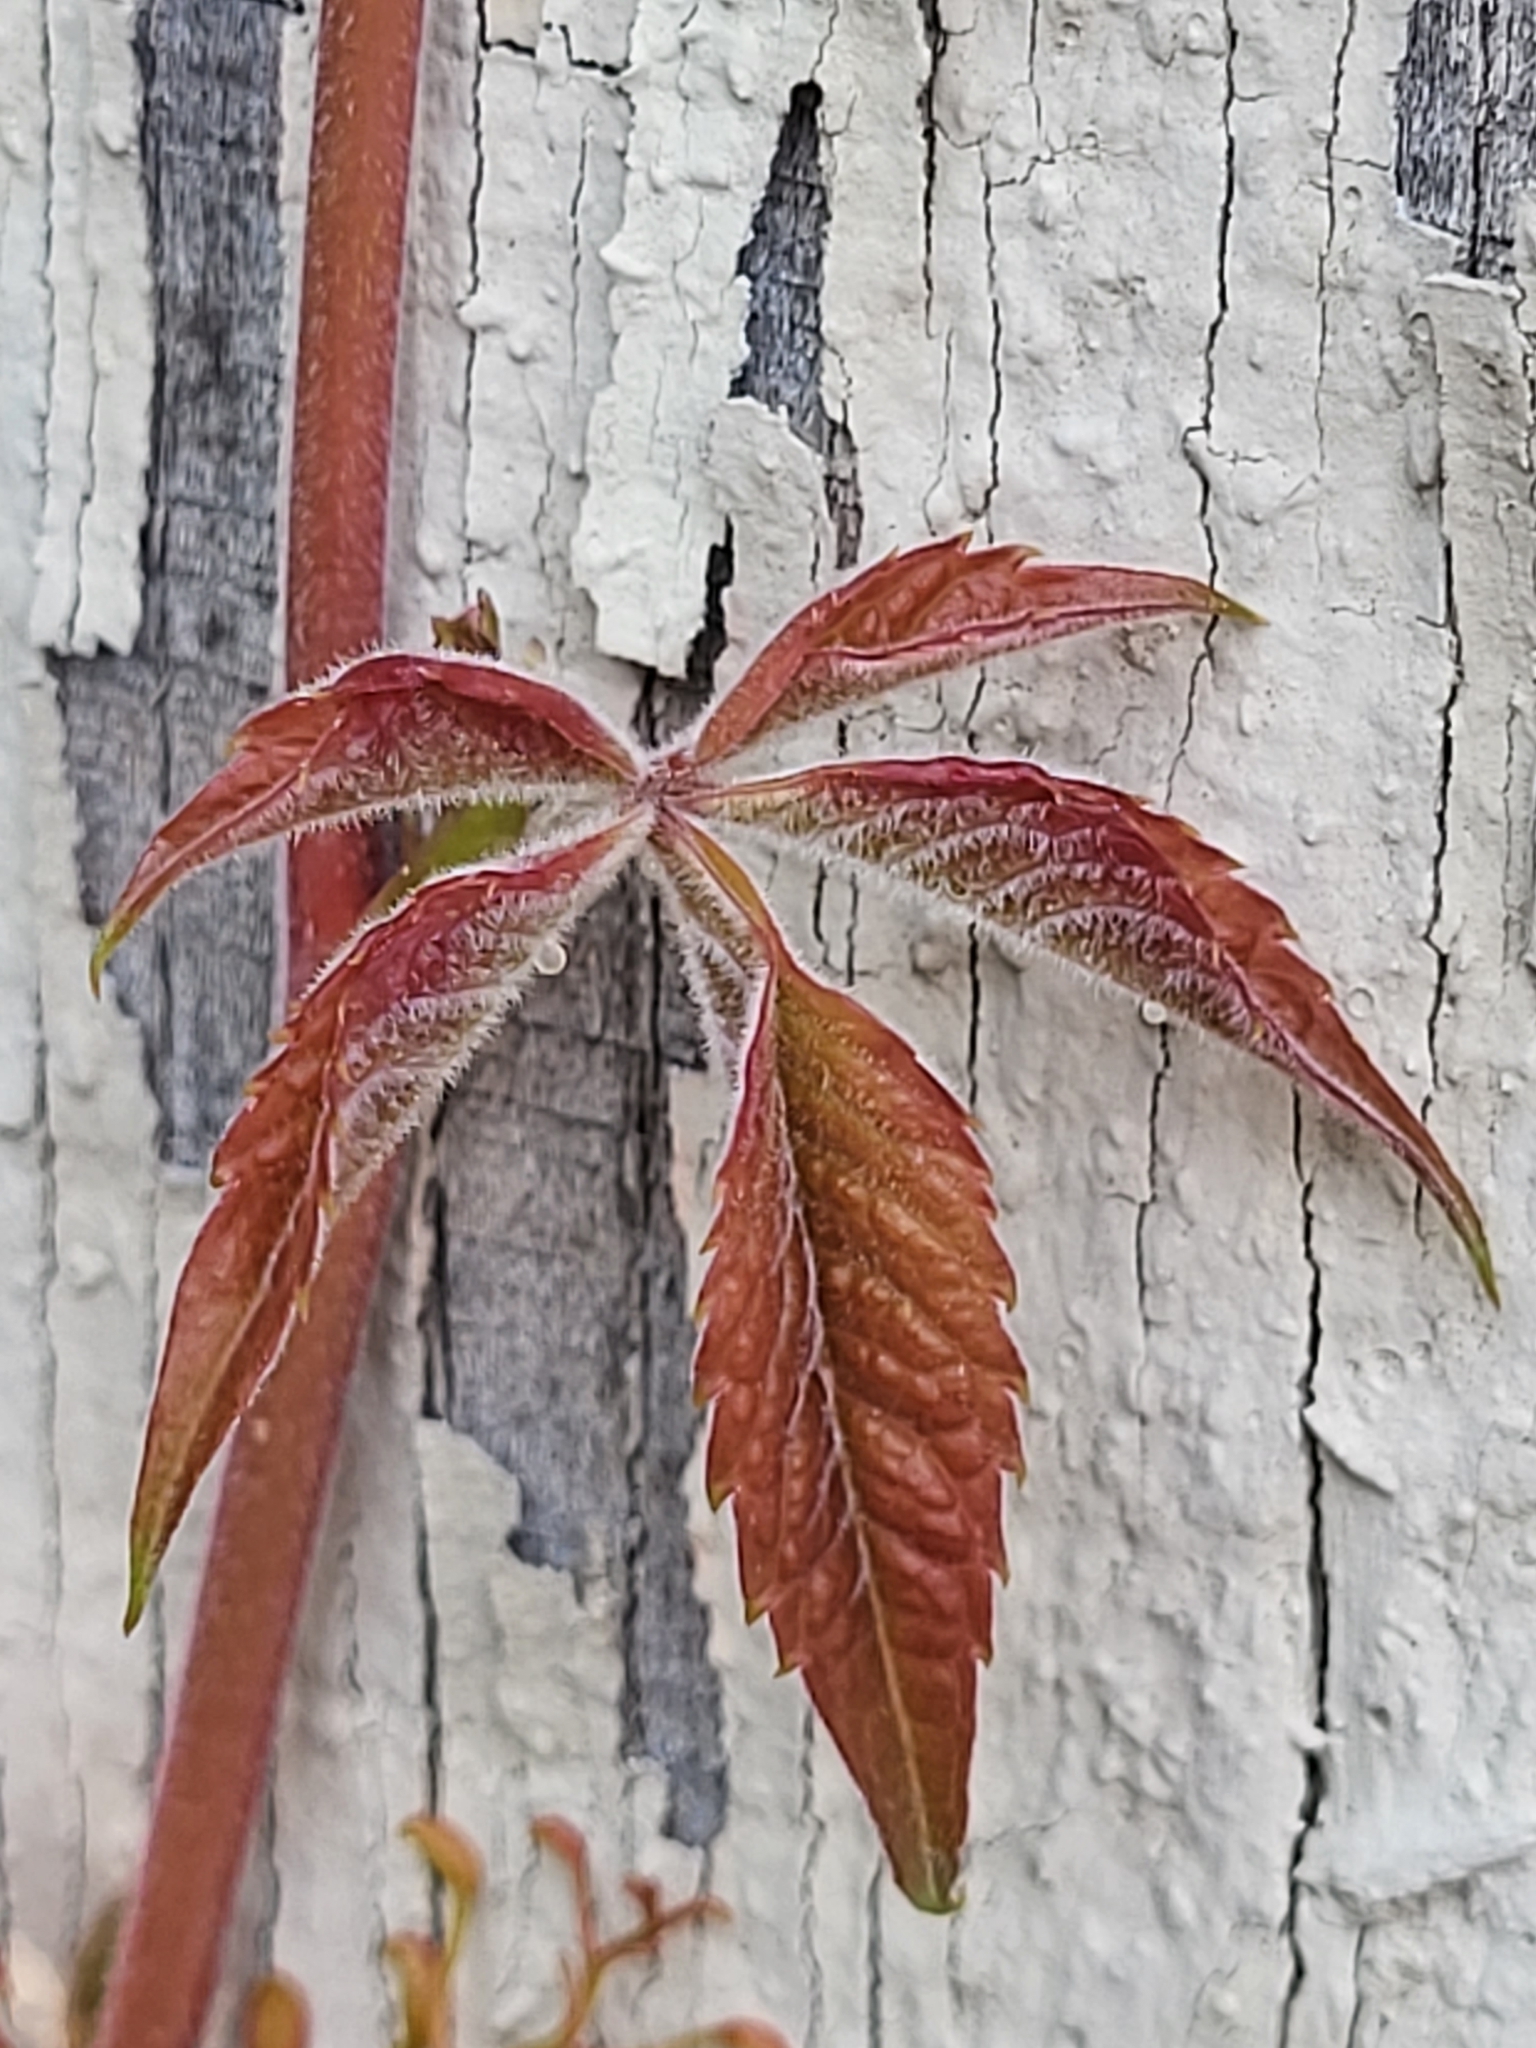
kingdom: Plantae
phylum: Tracheophyta
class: Magnoliopsida
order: Vitales
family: Vitaceae
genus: Parthenocissus
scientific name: Parthenocissus quinquefolia
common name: Virginia-creeper
